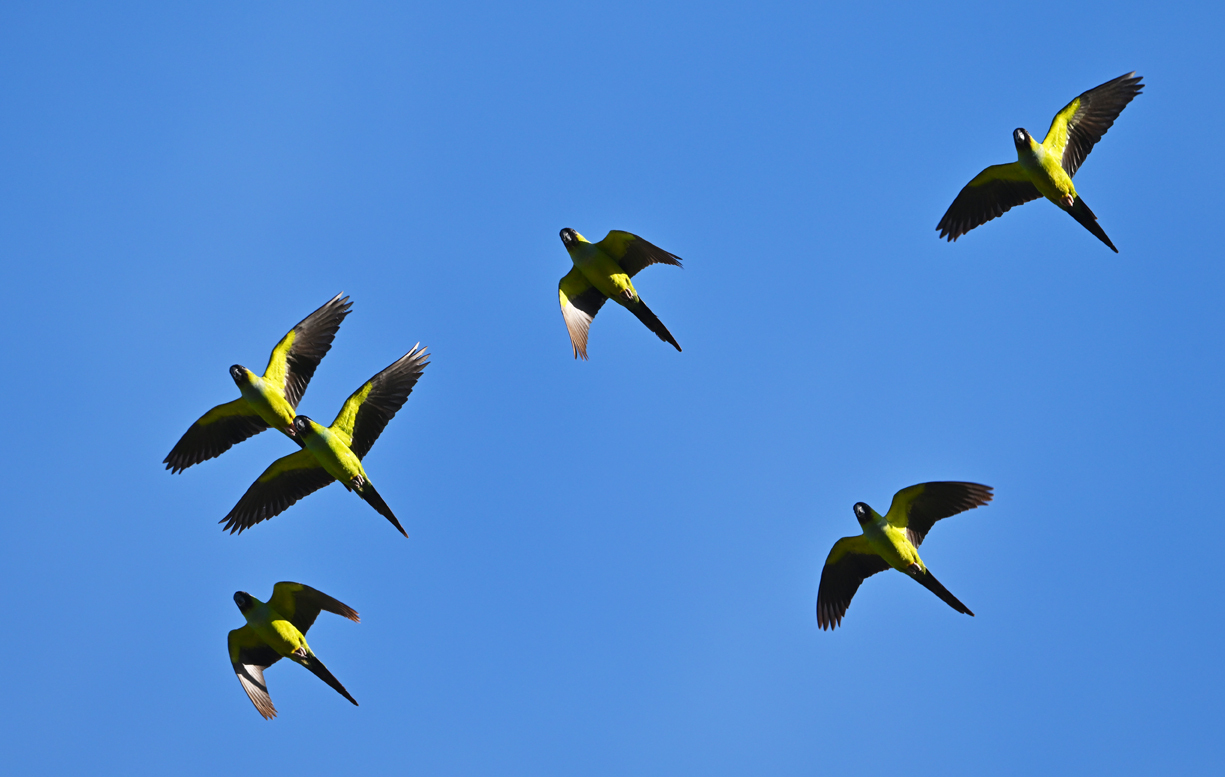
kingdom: Animalia
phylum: Chordata
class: Aves
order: Psittaciformes
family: Psittacidae
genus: Nandayus
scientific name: Nandayus nenday
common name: Nanday parakeet
